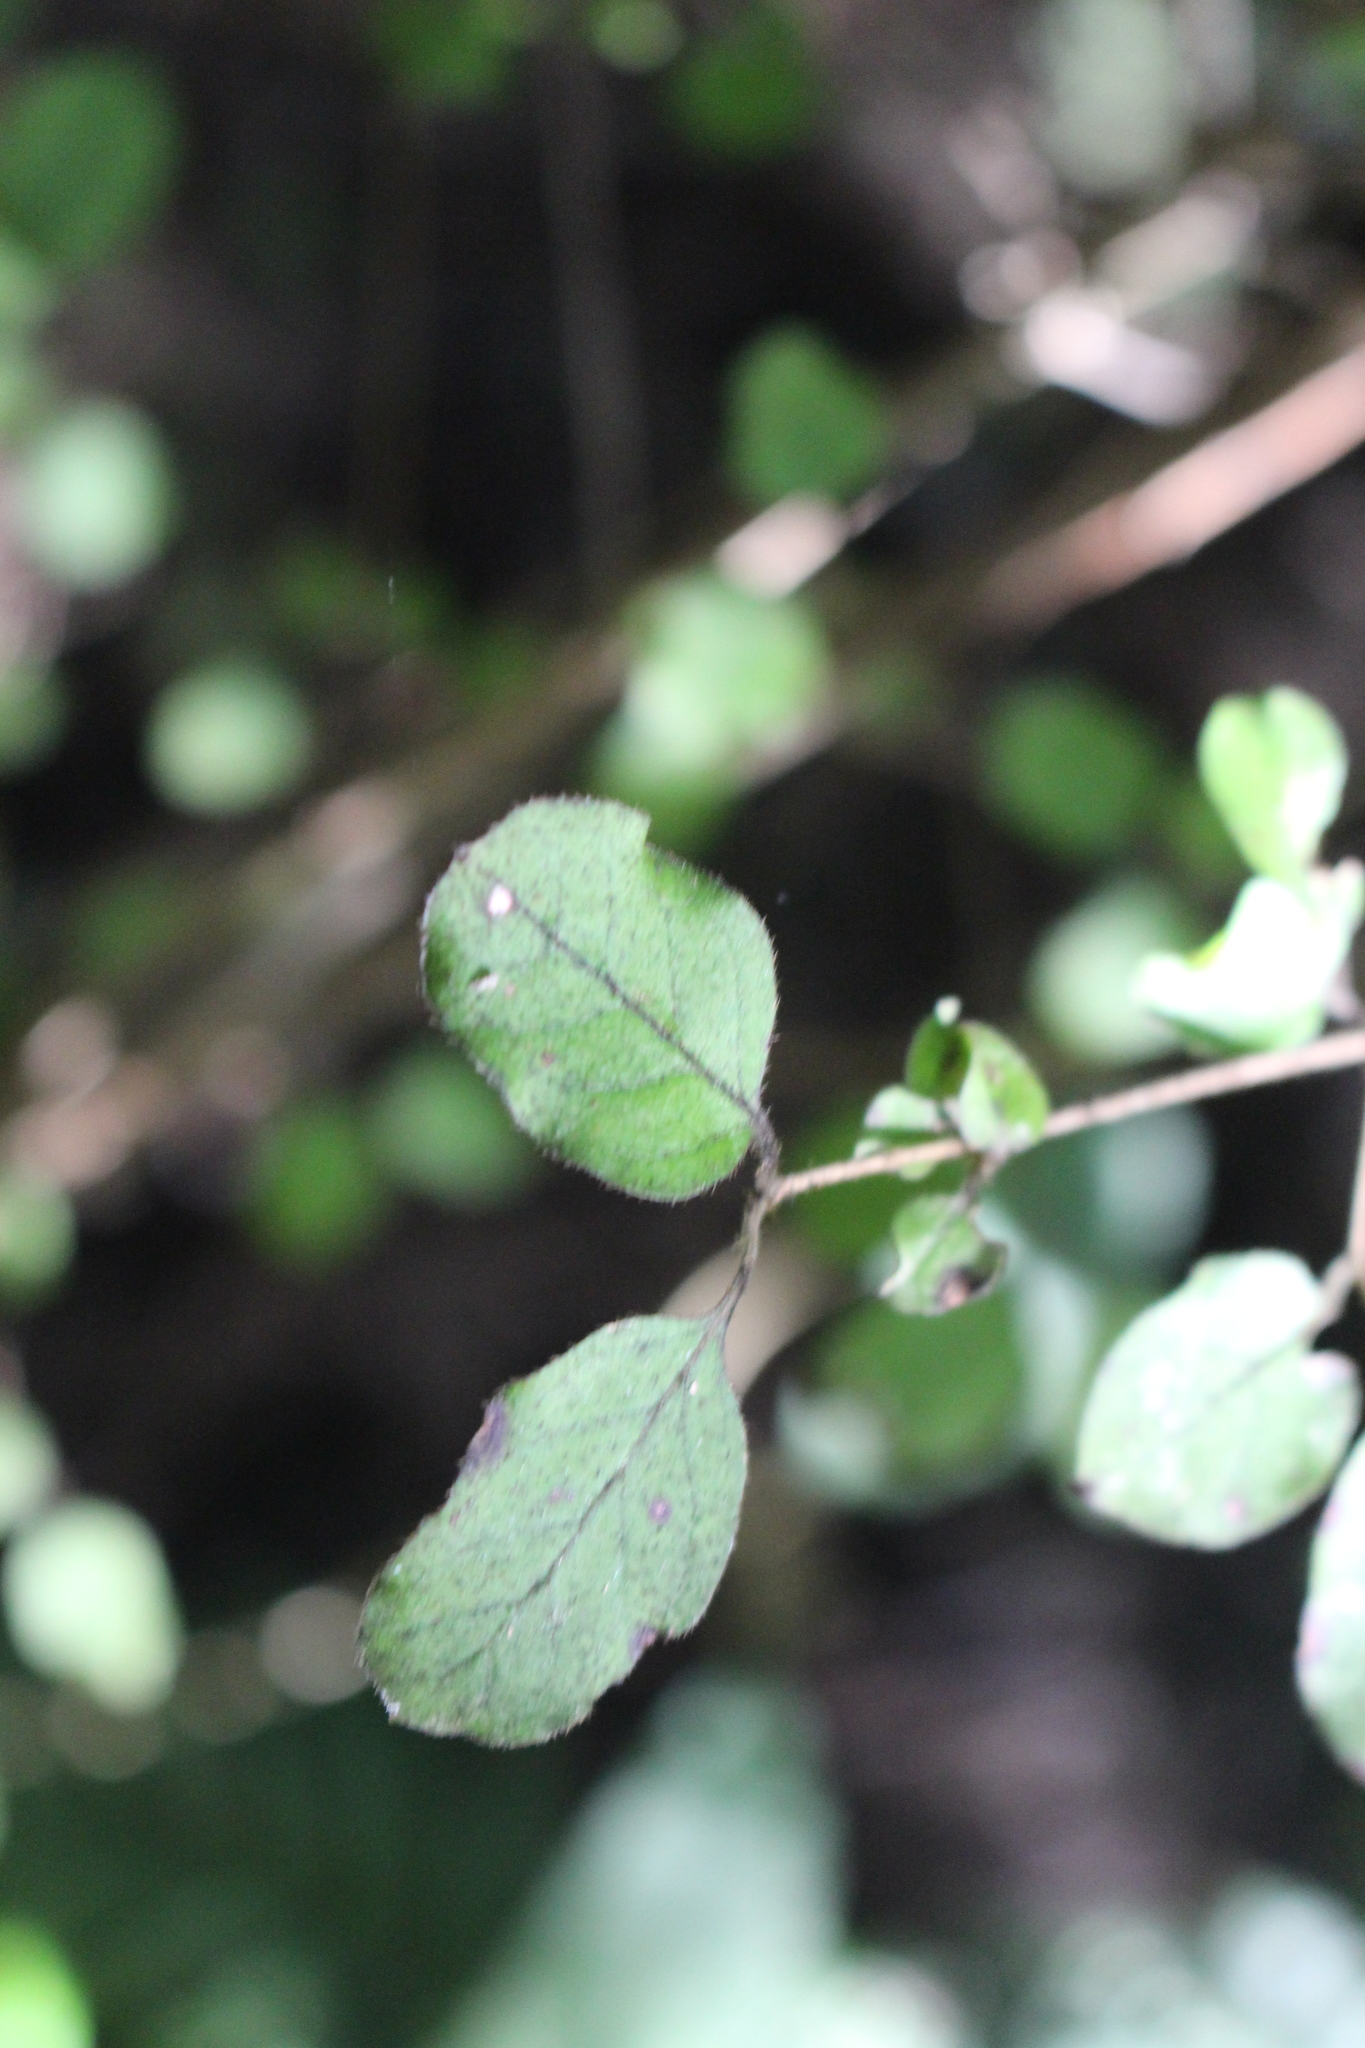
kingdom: Plantae
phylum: Tracheophyta
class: Magnoliopsida
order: Gentianales
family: Rubiaceae
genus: Coprosma
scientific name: Coprosma rotundifolia
